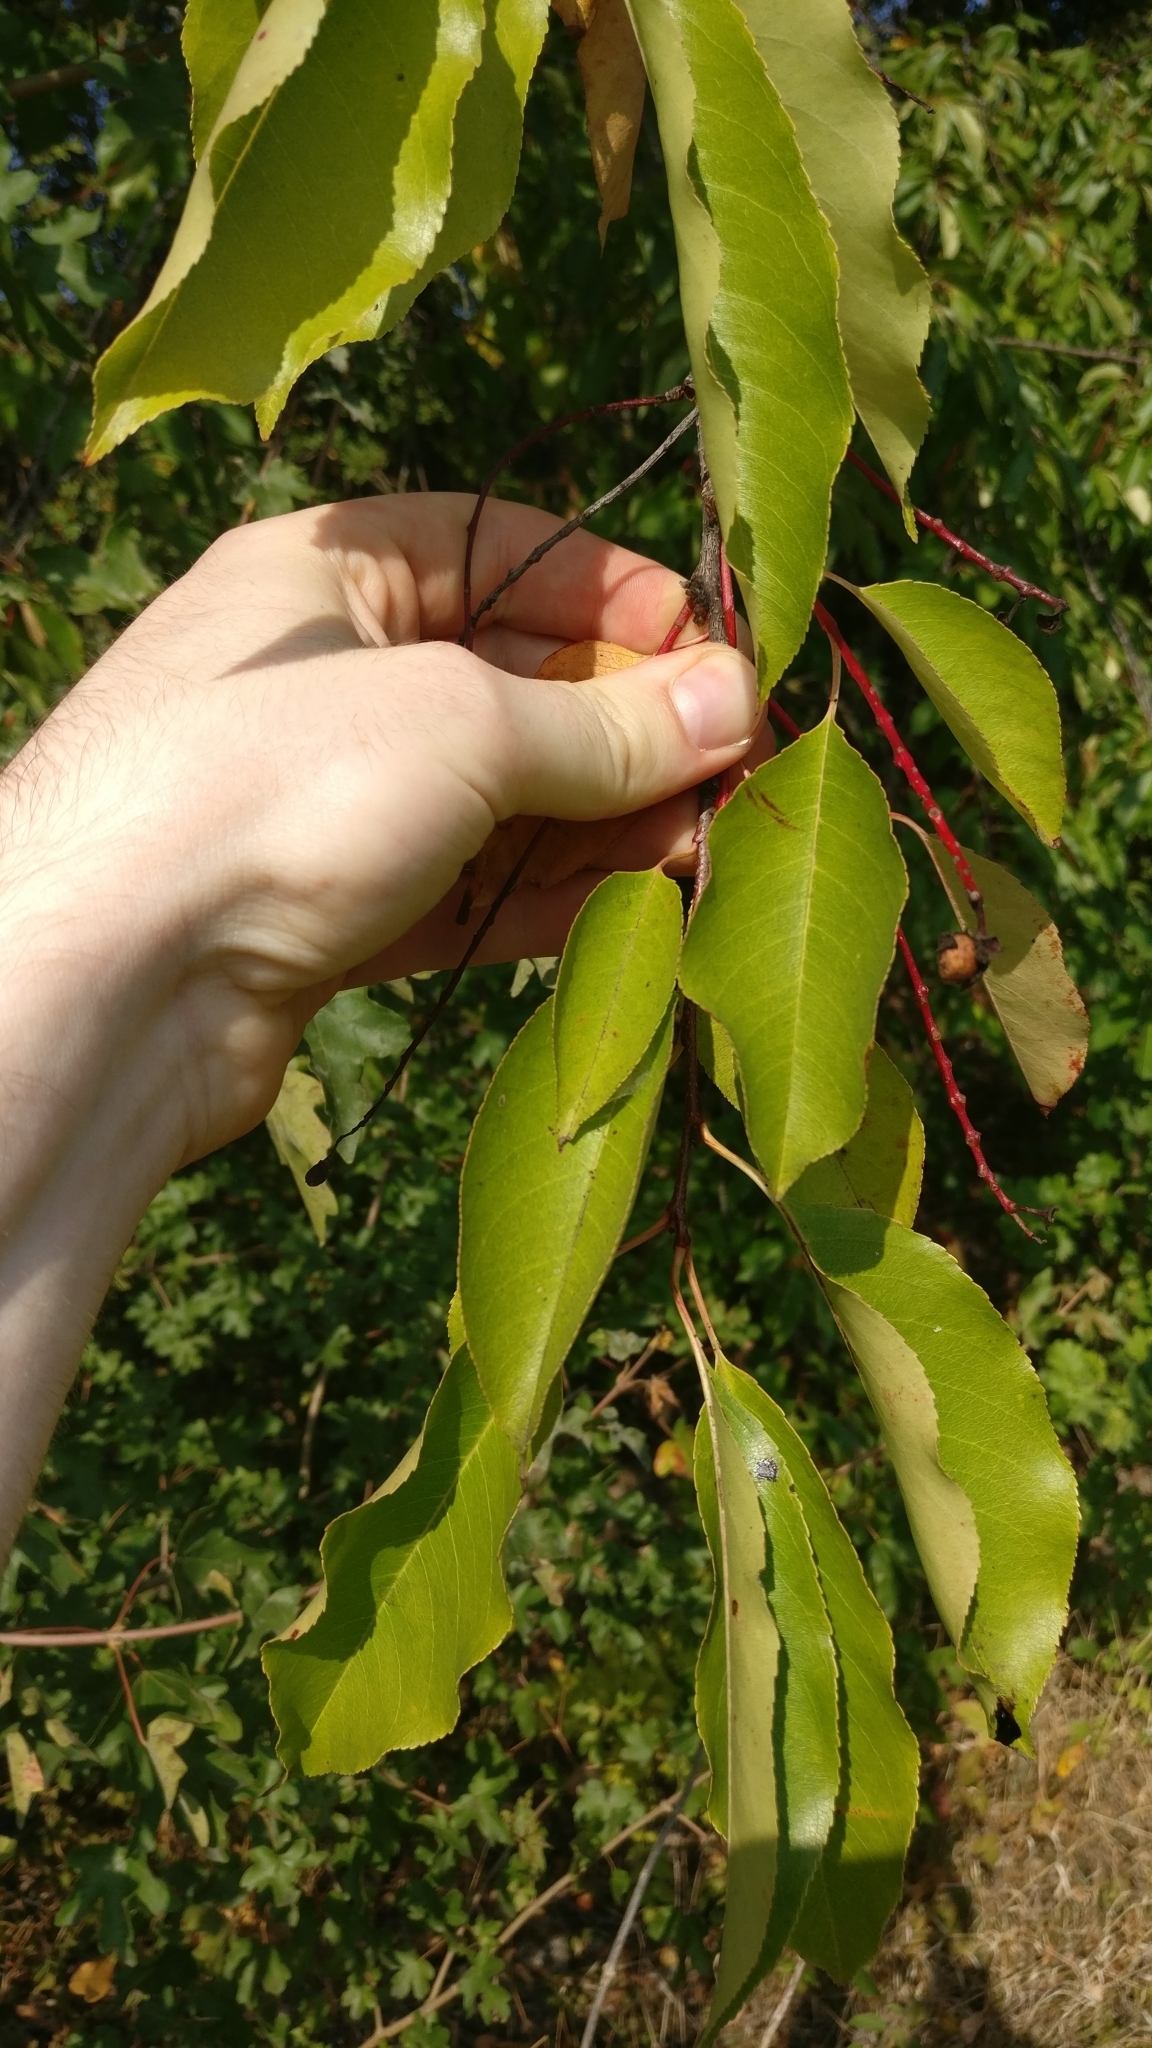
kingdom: Plantae
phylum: Tracheophyta
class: Magnoliopsida
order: Rosales
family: Rosaceae
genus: Prunus
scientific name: Prunus serotina
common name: Black cherry
